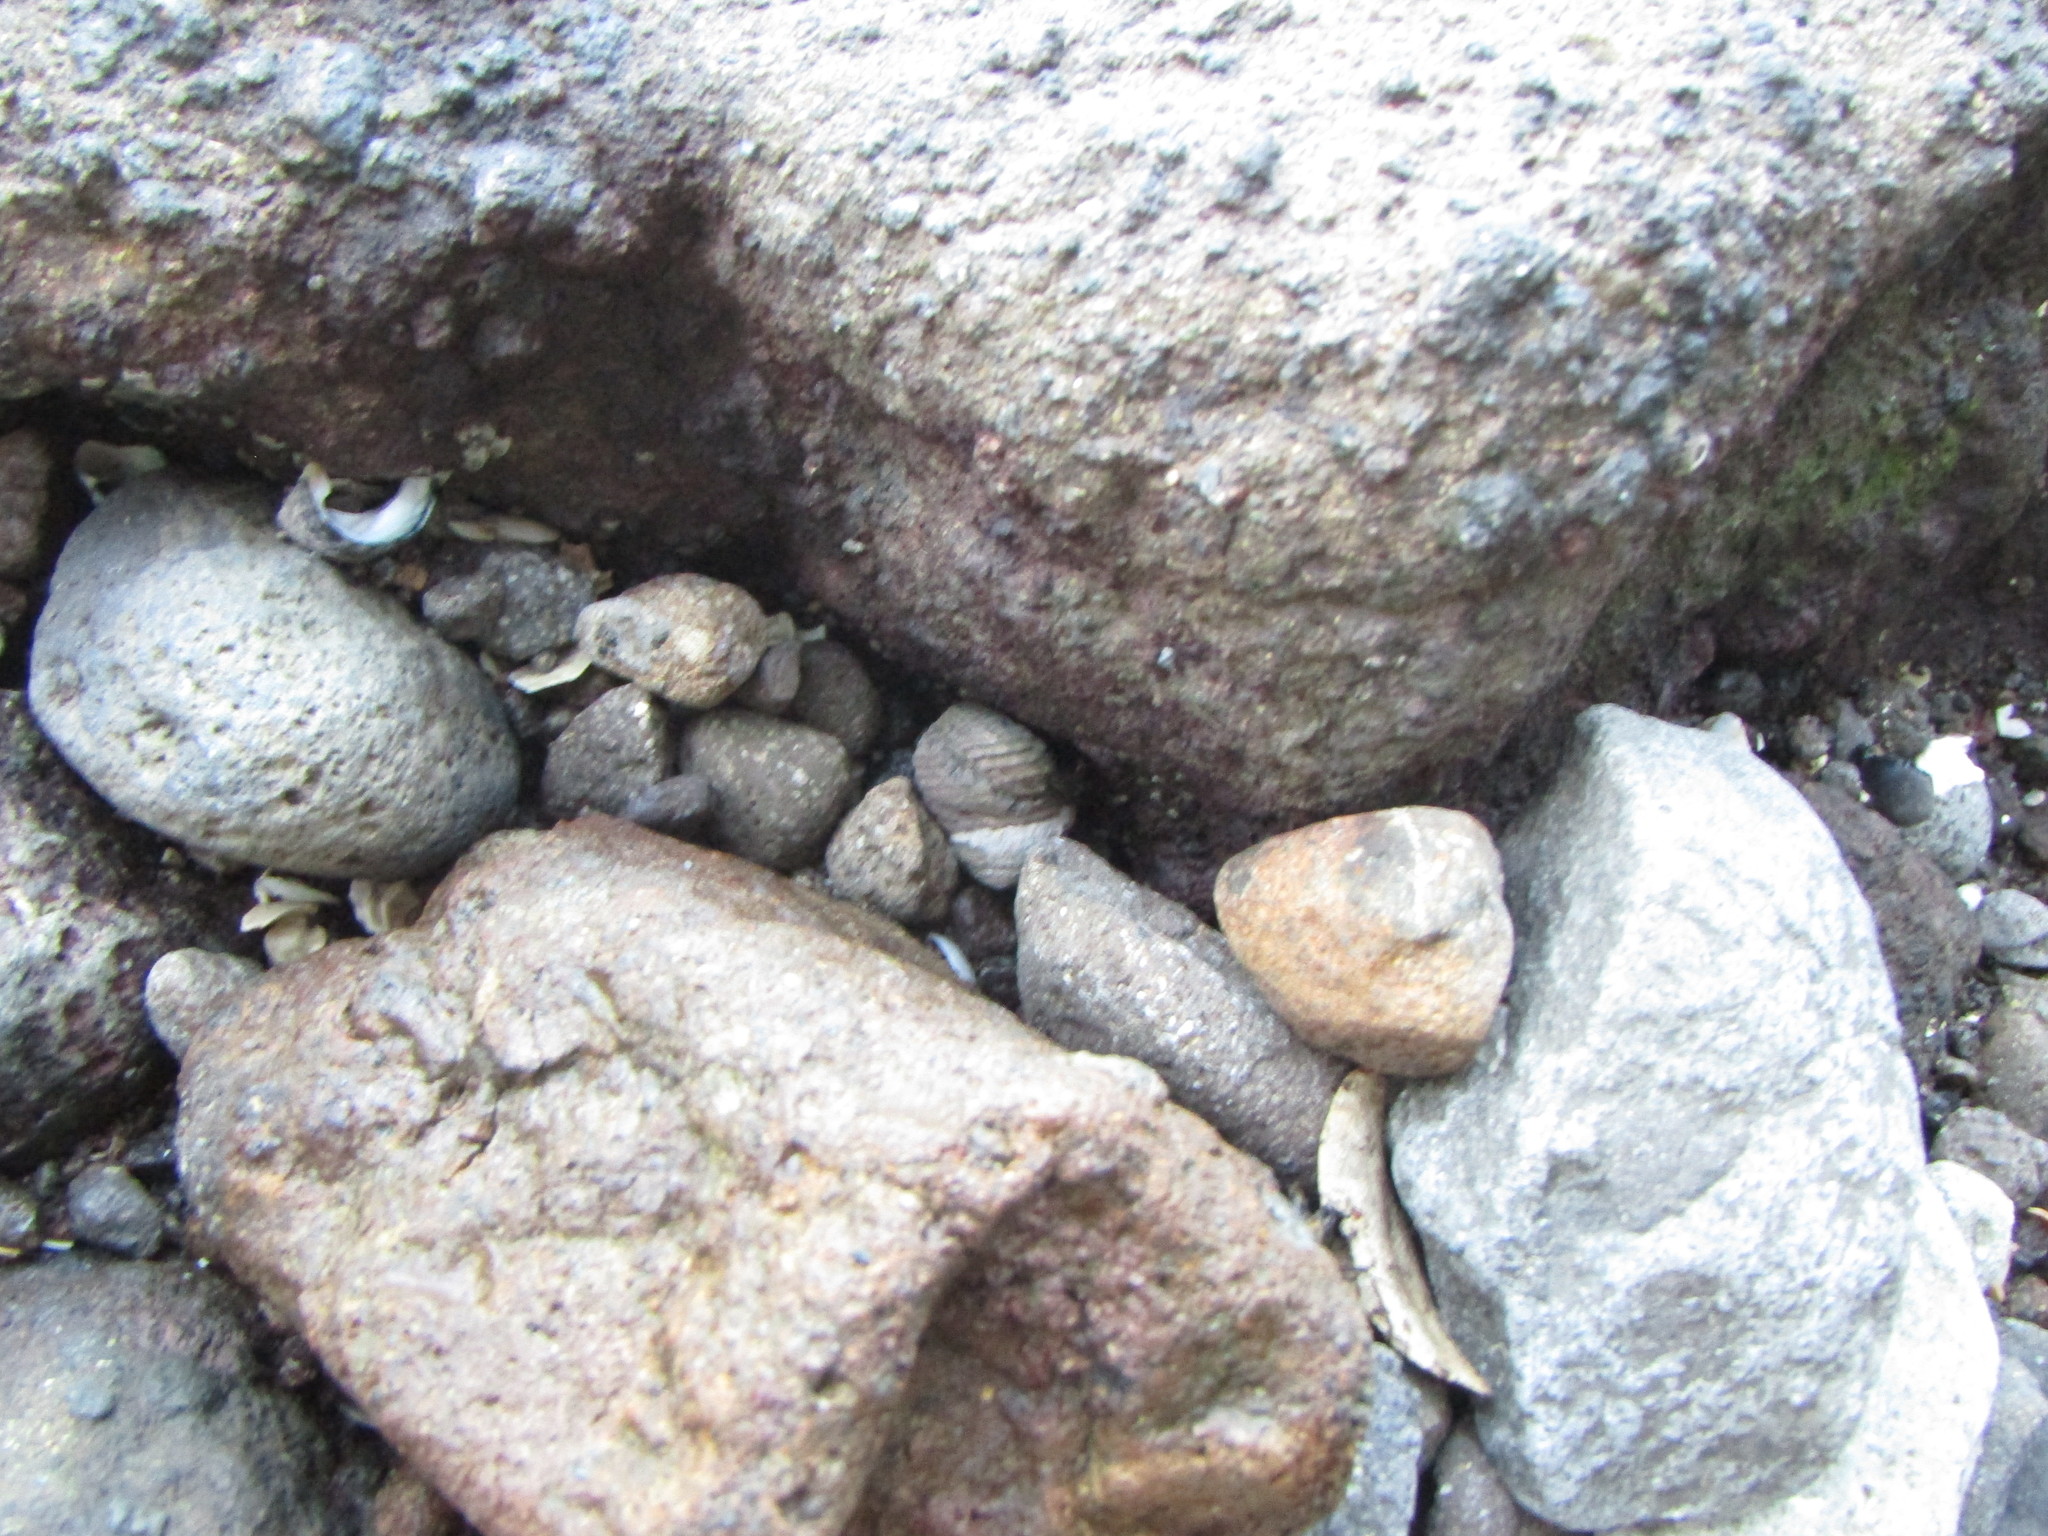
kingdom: Animalia
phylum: Mollusca
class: Gastropoda
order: Trochida
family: Trochidae
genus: Diloma
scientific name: Diloma zelandicum
